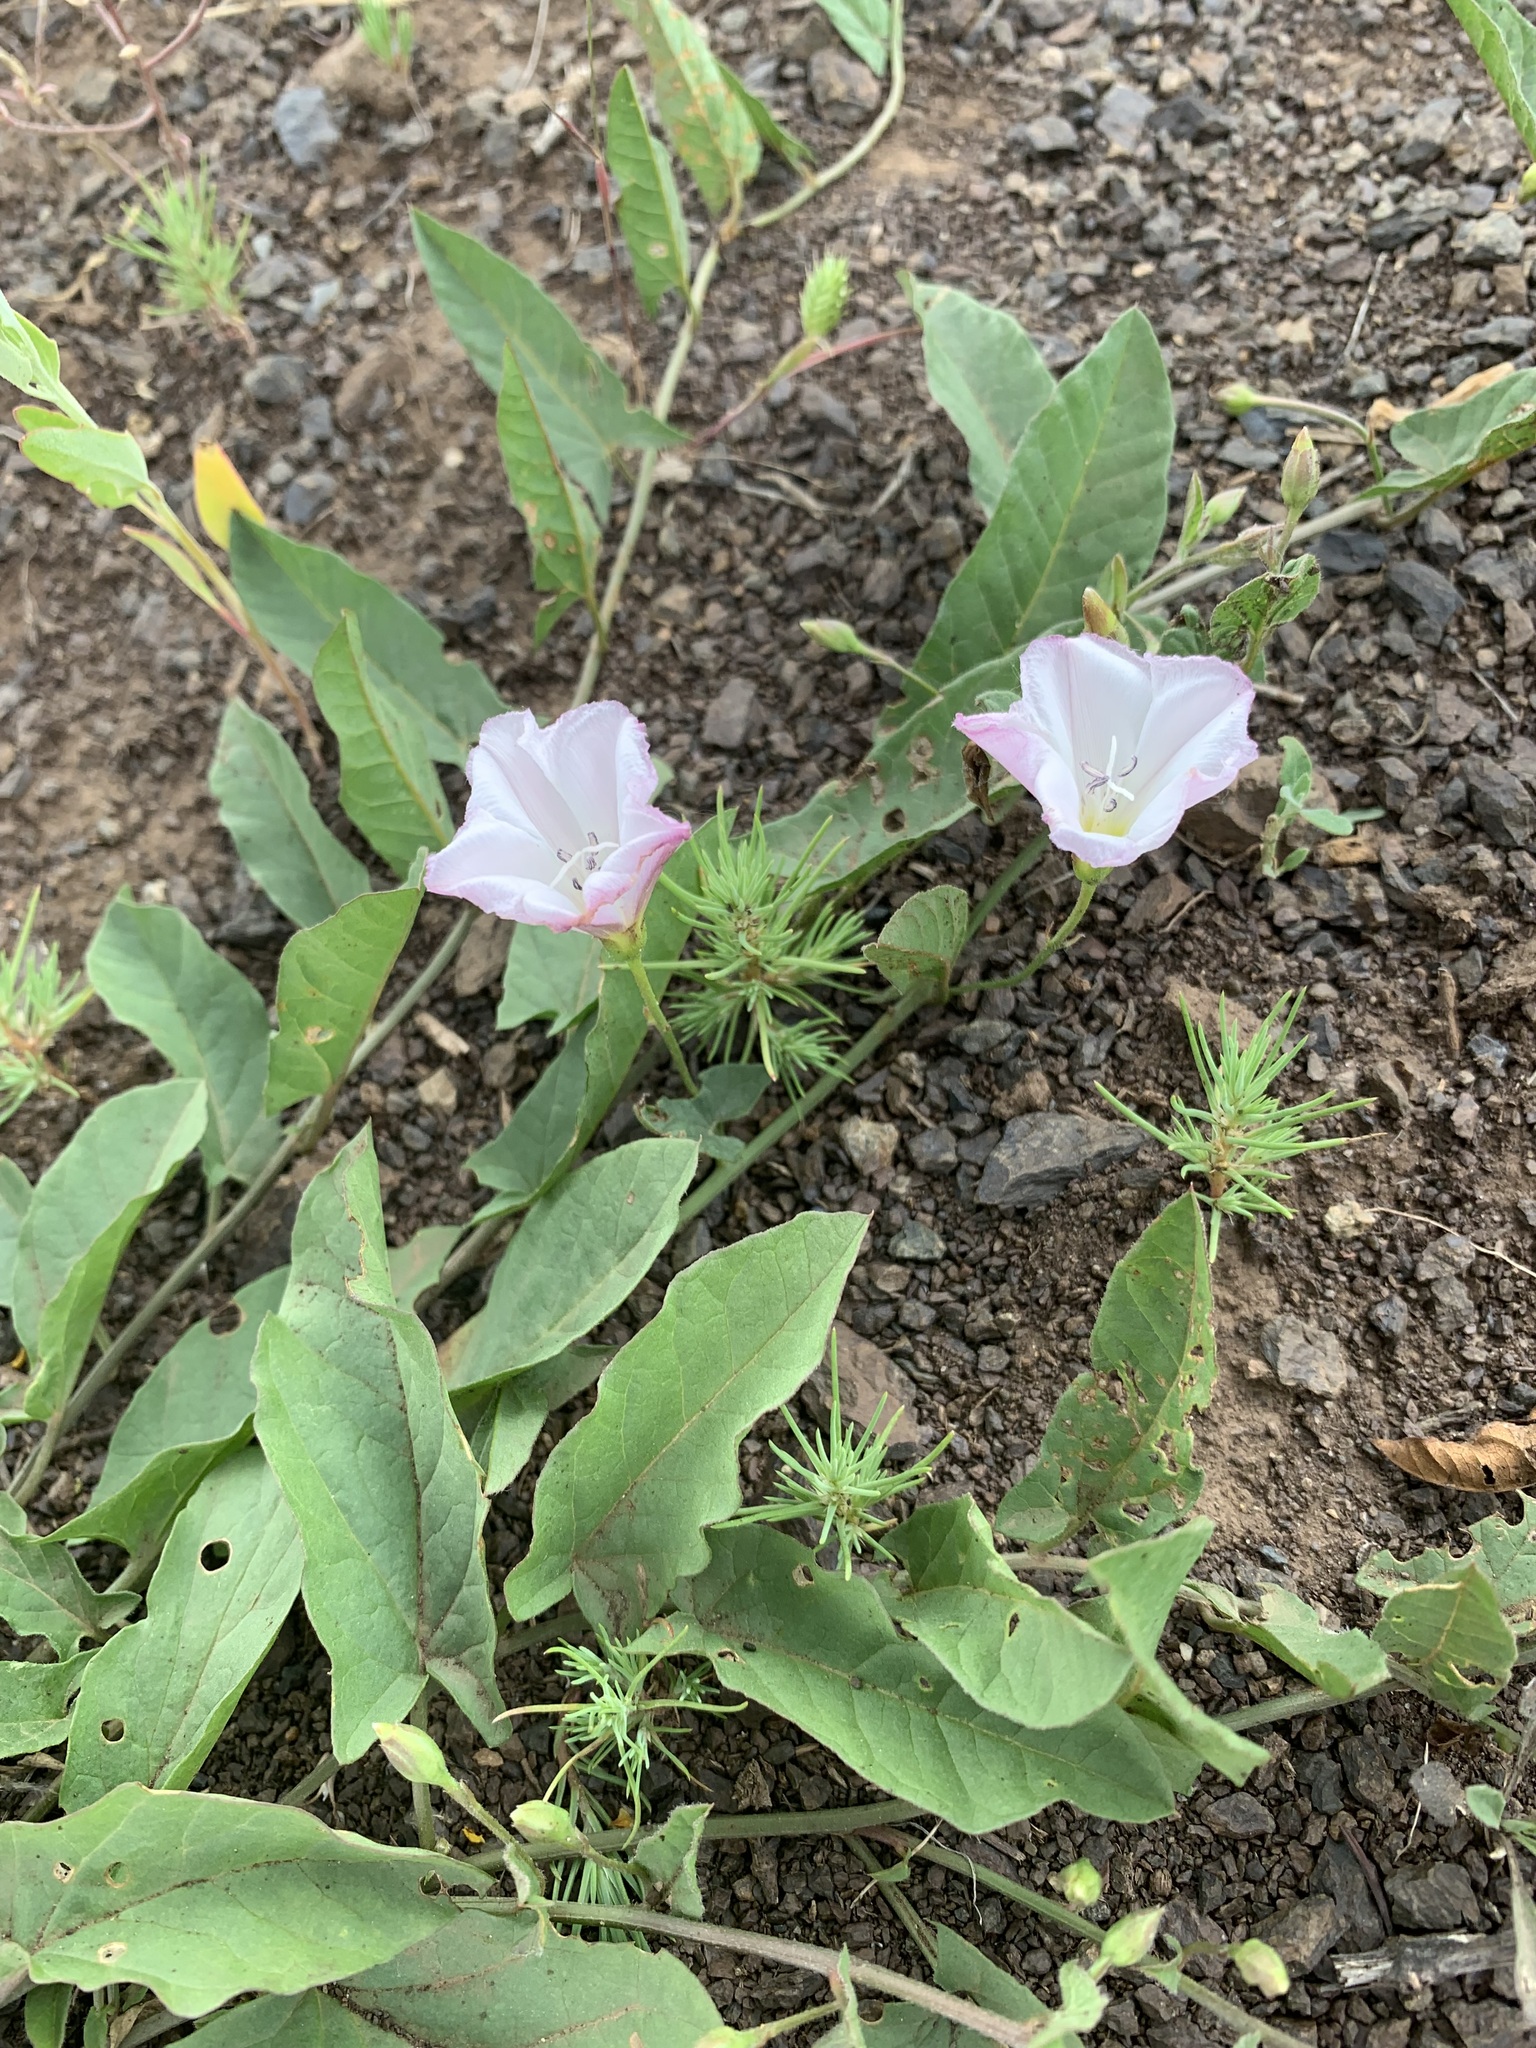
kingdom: Plantae
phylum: Tracheophyta
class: Magnoliopsida
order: Solanales
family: Convolvulaceae
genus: Convolvulus
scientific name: Convolvulus arvensis
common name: Field bindweed
